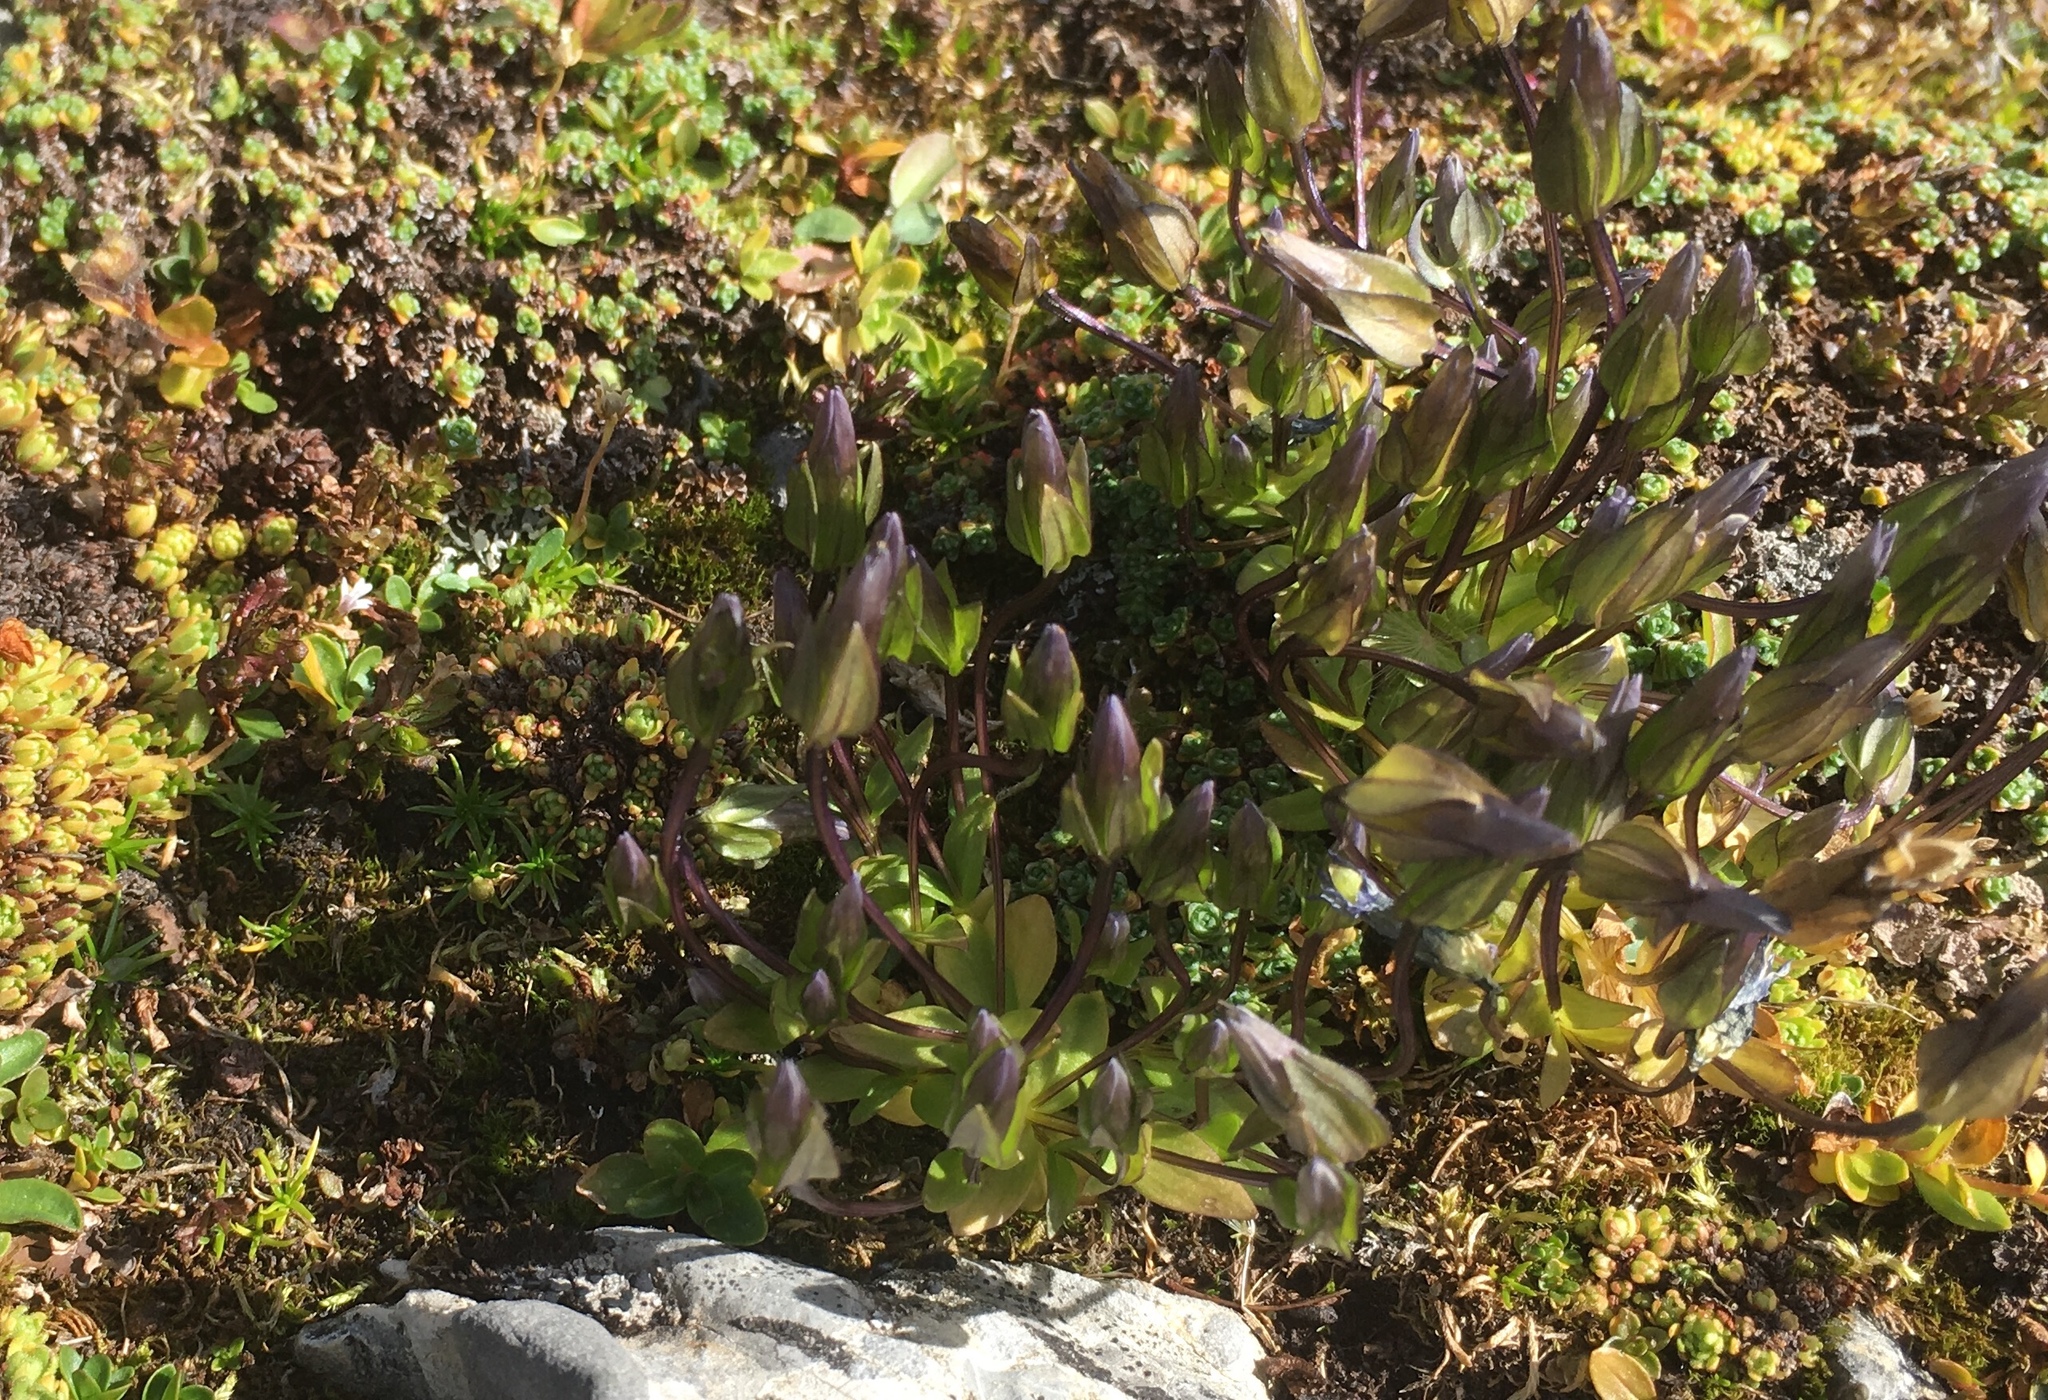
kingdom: Plantae
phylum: Tracheophyta
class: Magnoliopsida
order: Gentianales
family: Gentianaceae
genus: Comastoma
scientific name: Comastoma tenellum
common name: Dane's dwarf gentian
